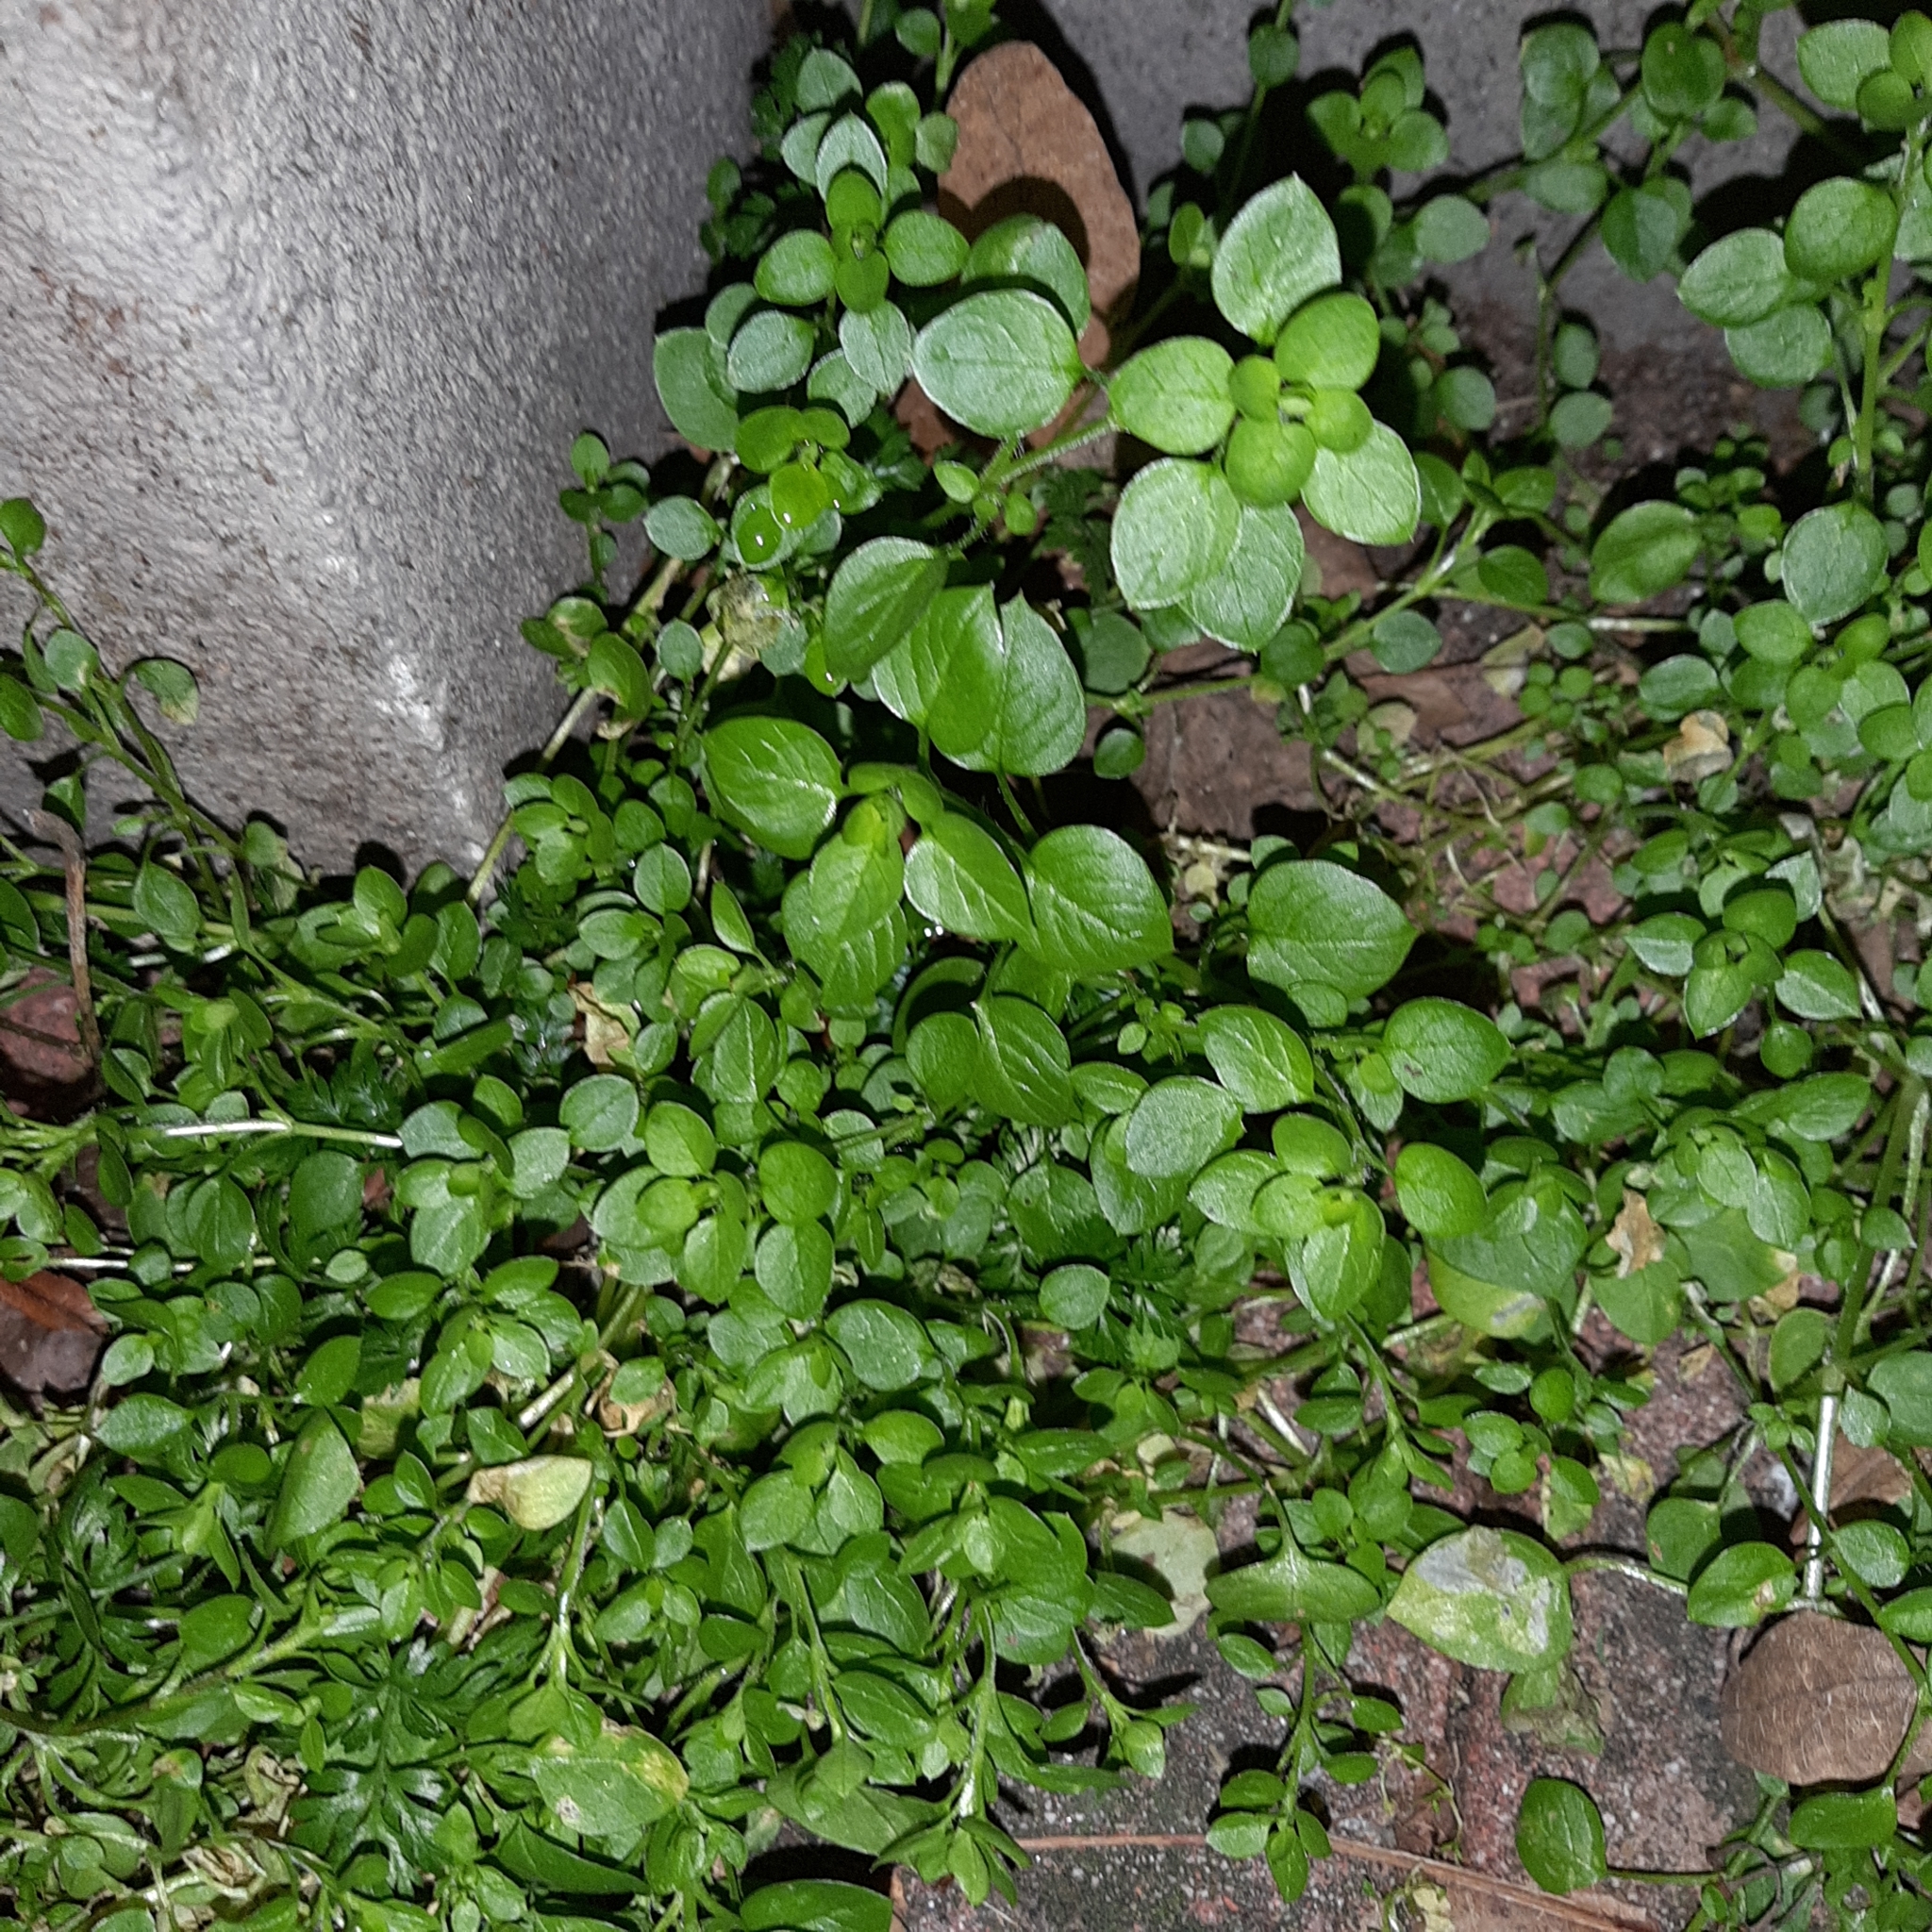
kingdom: Plantae
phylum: Tracheophyta
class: Magnoliopsida
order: Caryophyllales
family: Caryophyllaceae
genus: Stellaria
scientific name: Stellaria media
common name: Common chickweed
